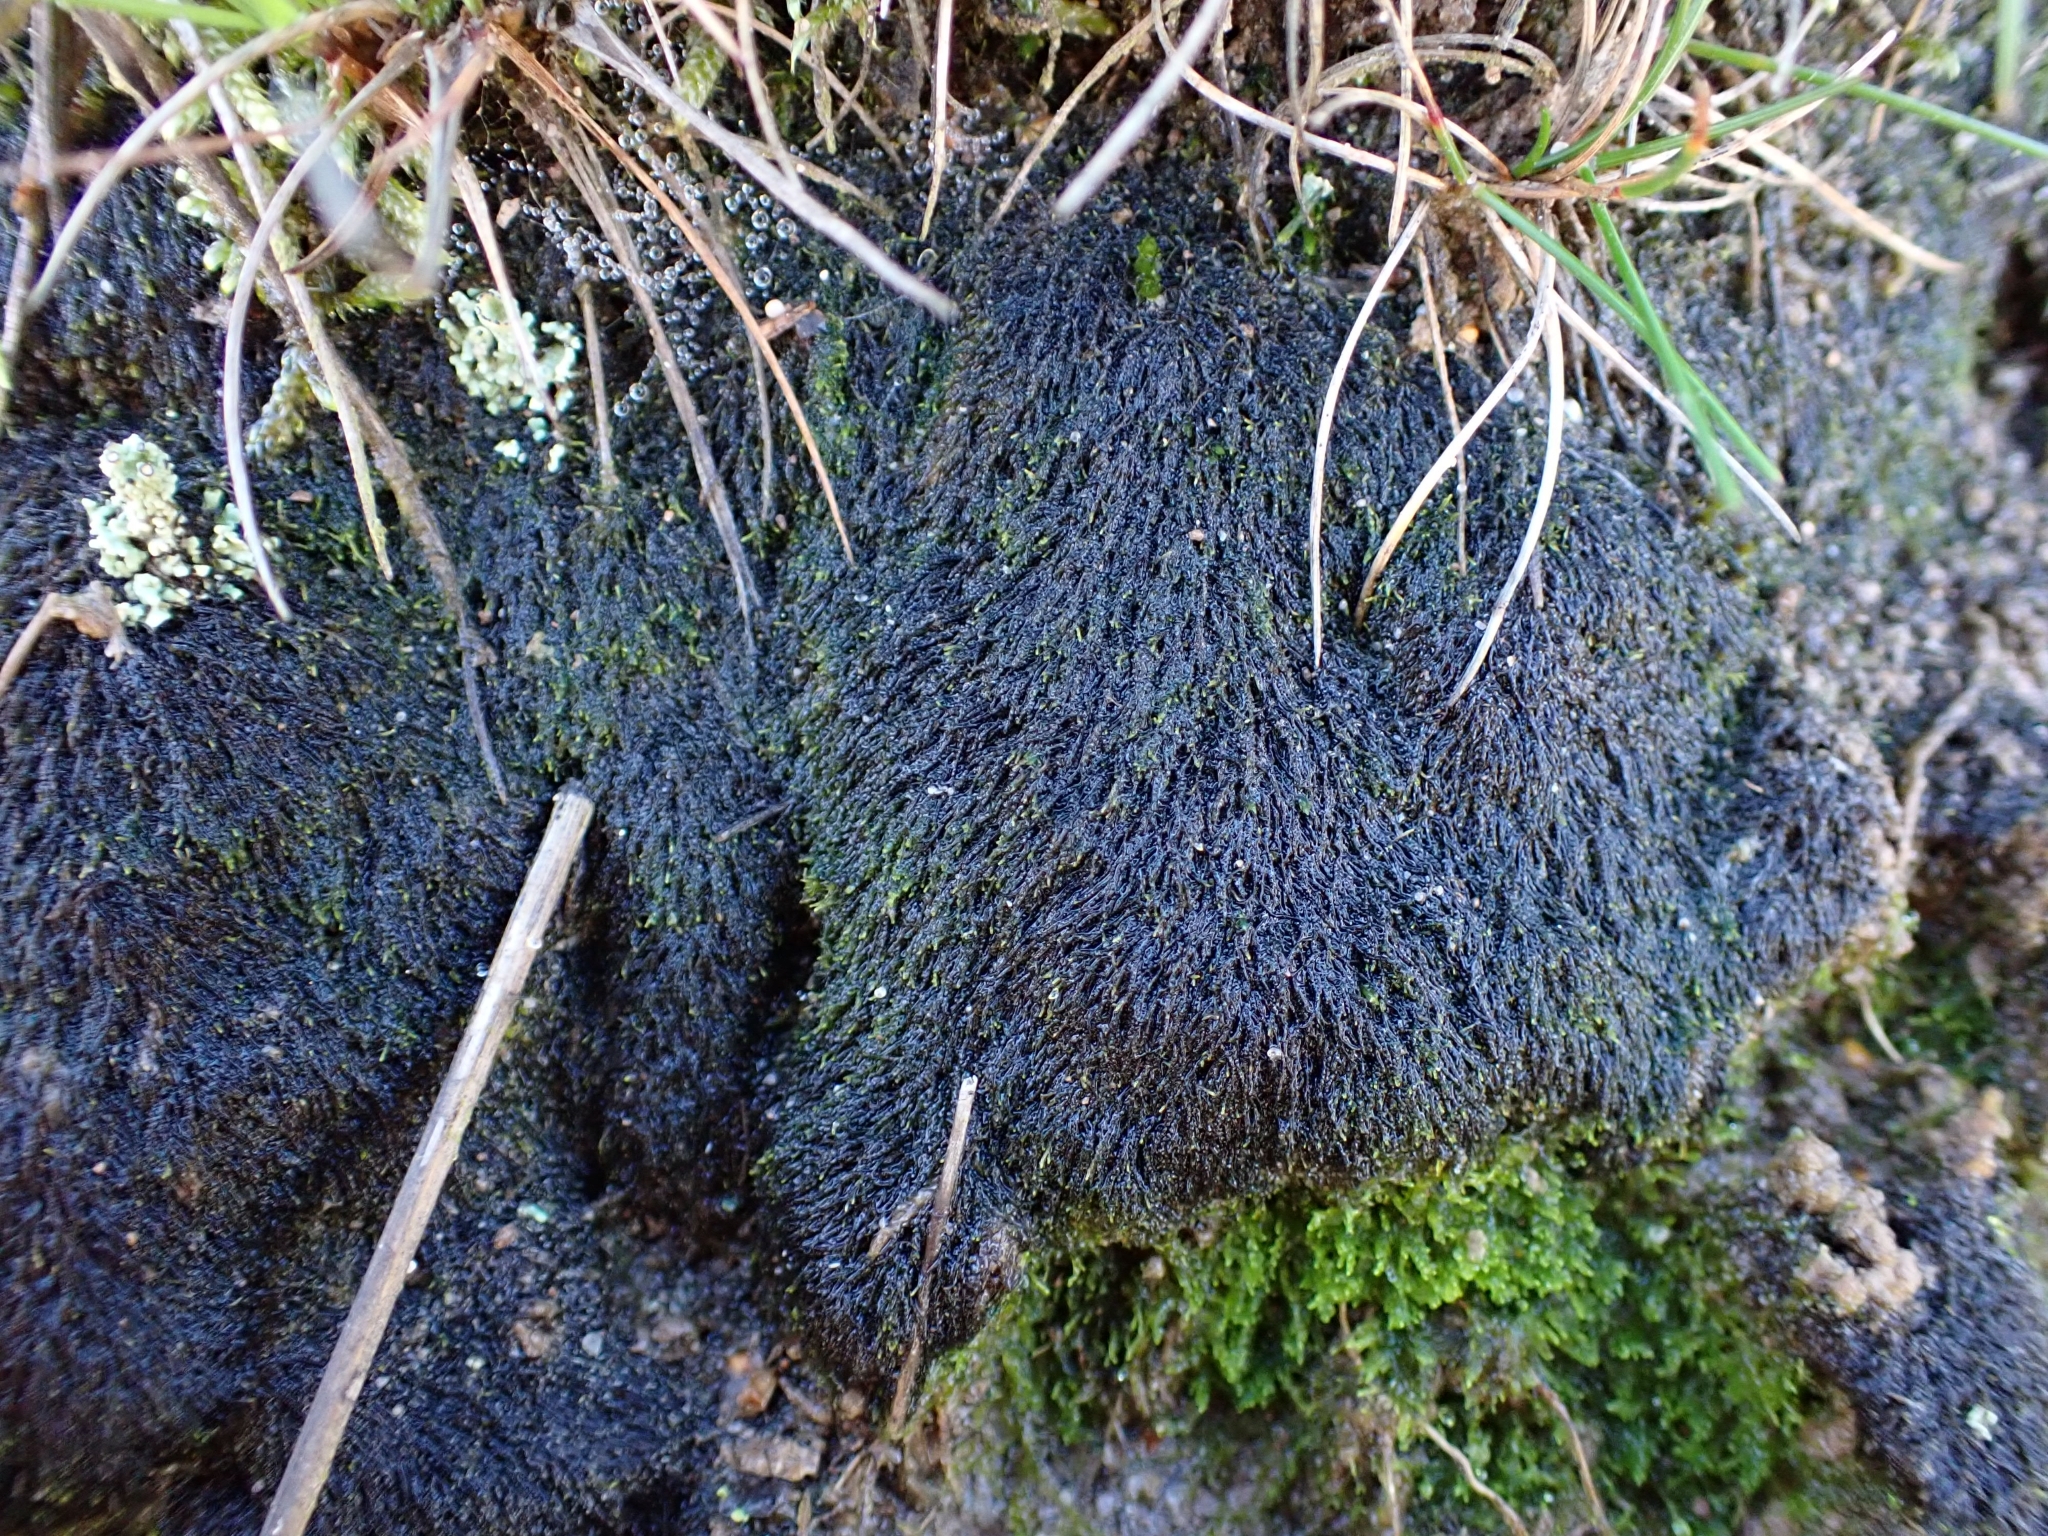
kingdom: Plantae
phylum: Marchantiophyta
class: Jungermanniopsida
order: Jungermanniales
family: Cephaloziellaceae
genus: Cephaloziella
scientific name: Cephaloziella stellulifera
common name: Heath threadwort
